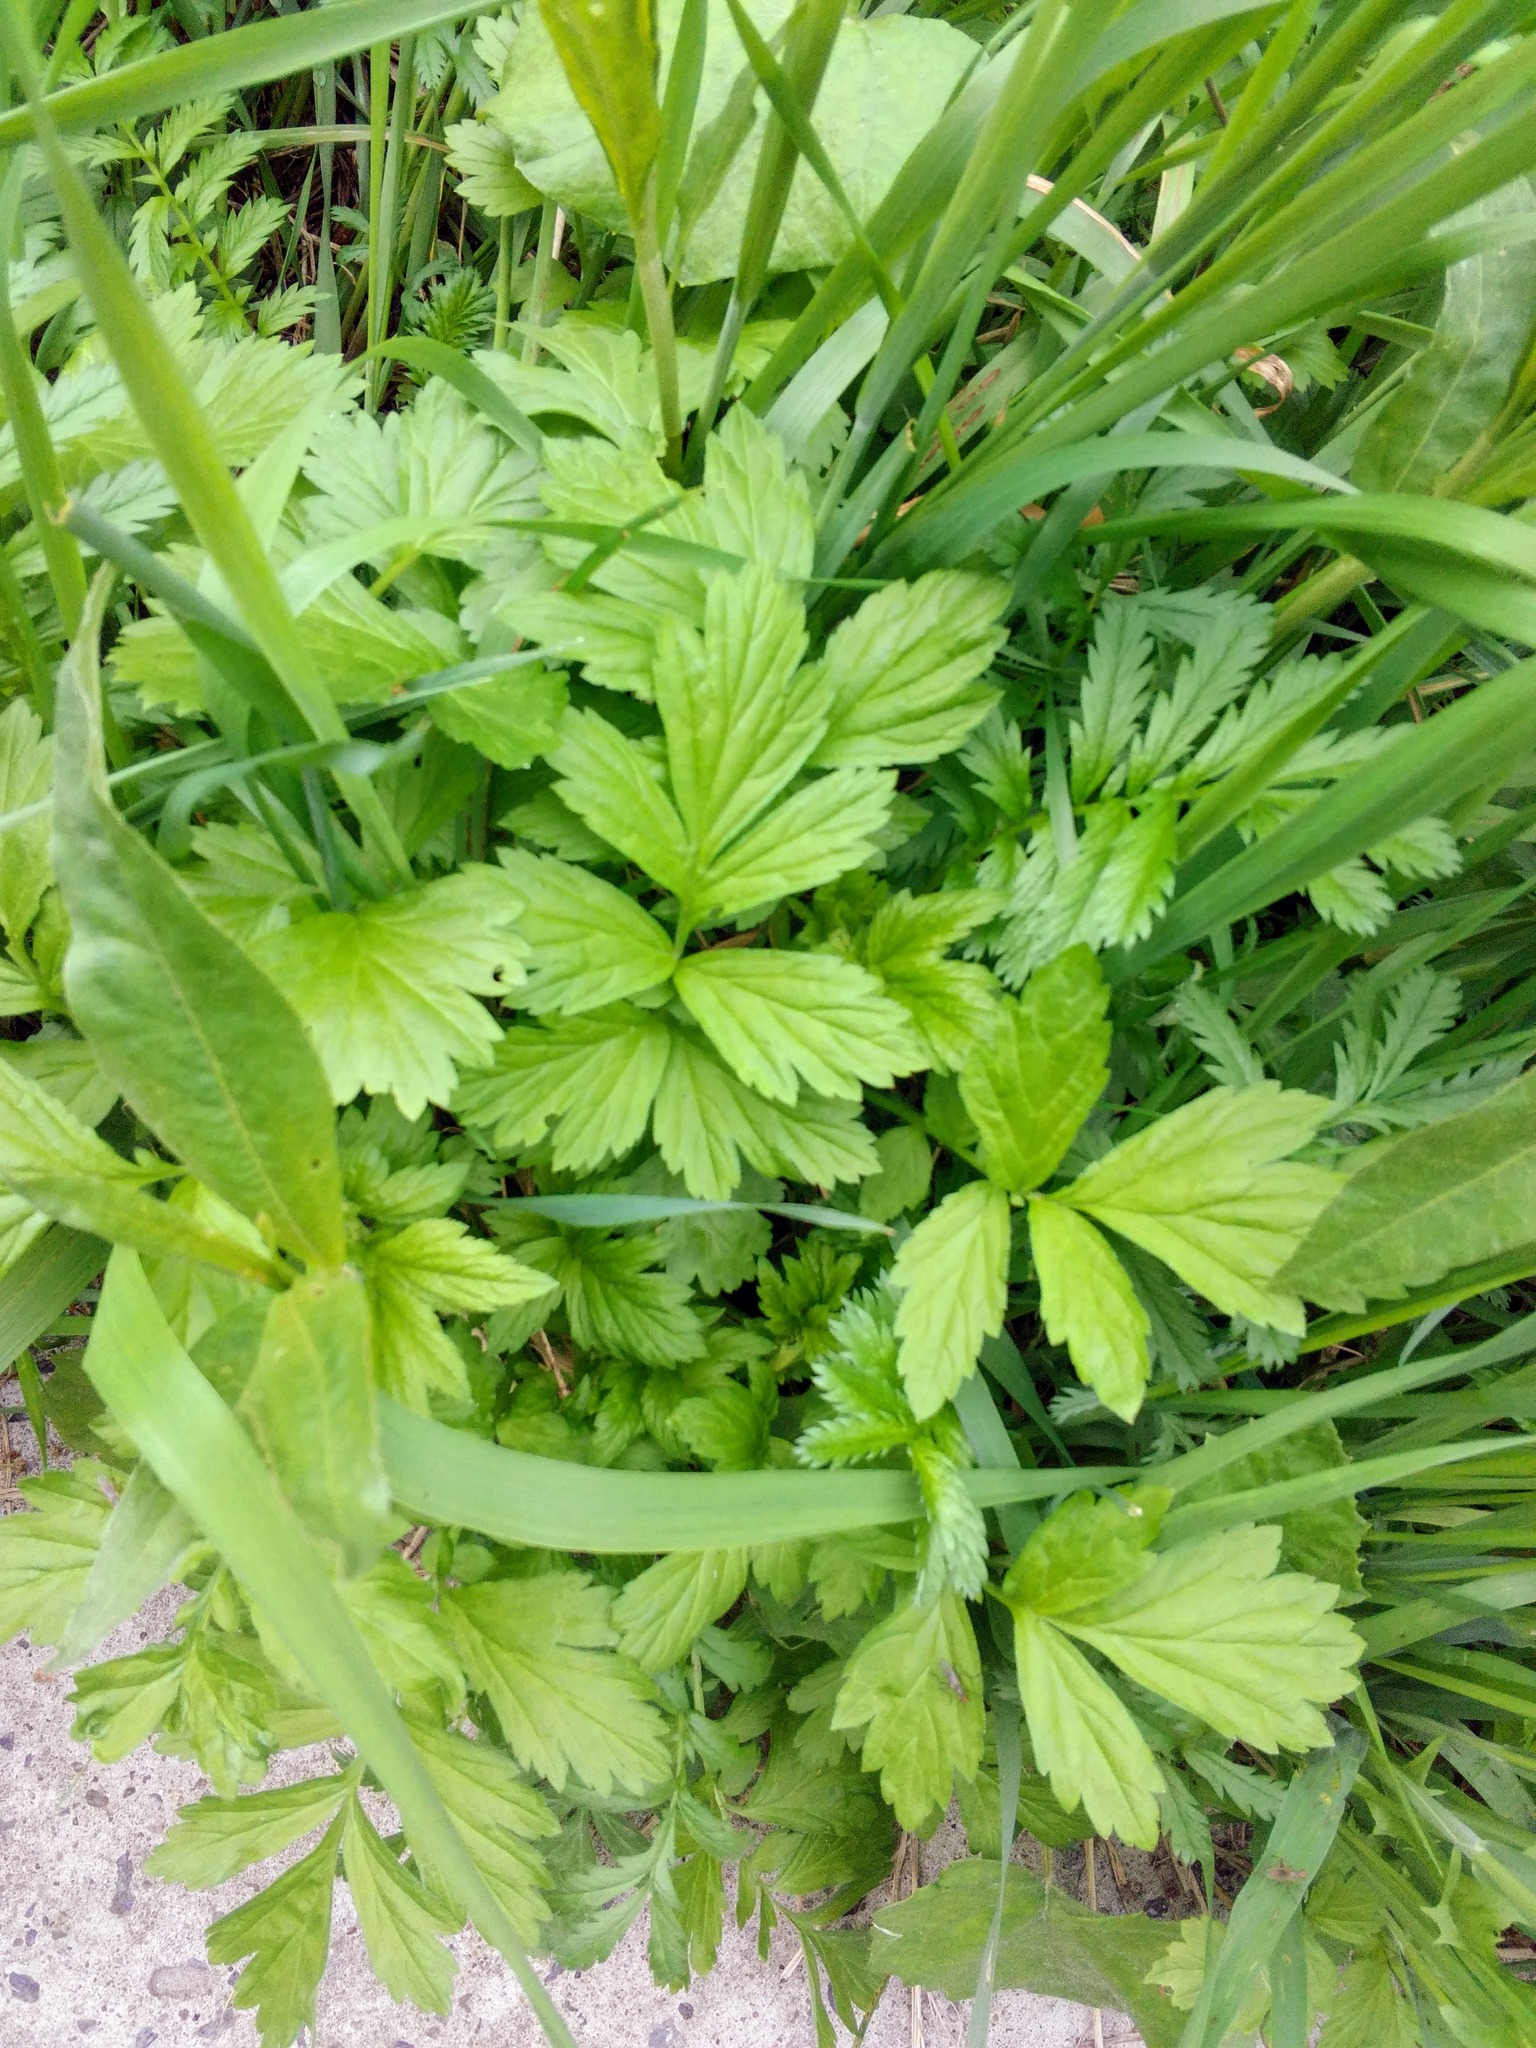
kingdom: Plantae
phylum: Tracheophyta
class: Magnoliopsida
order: Rosales
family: Rosaceae
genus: Geum
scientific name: Geum aleppicum
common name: Yellow avens
